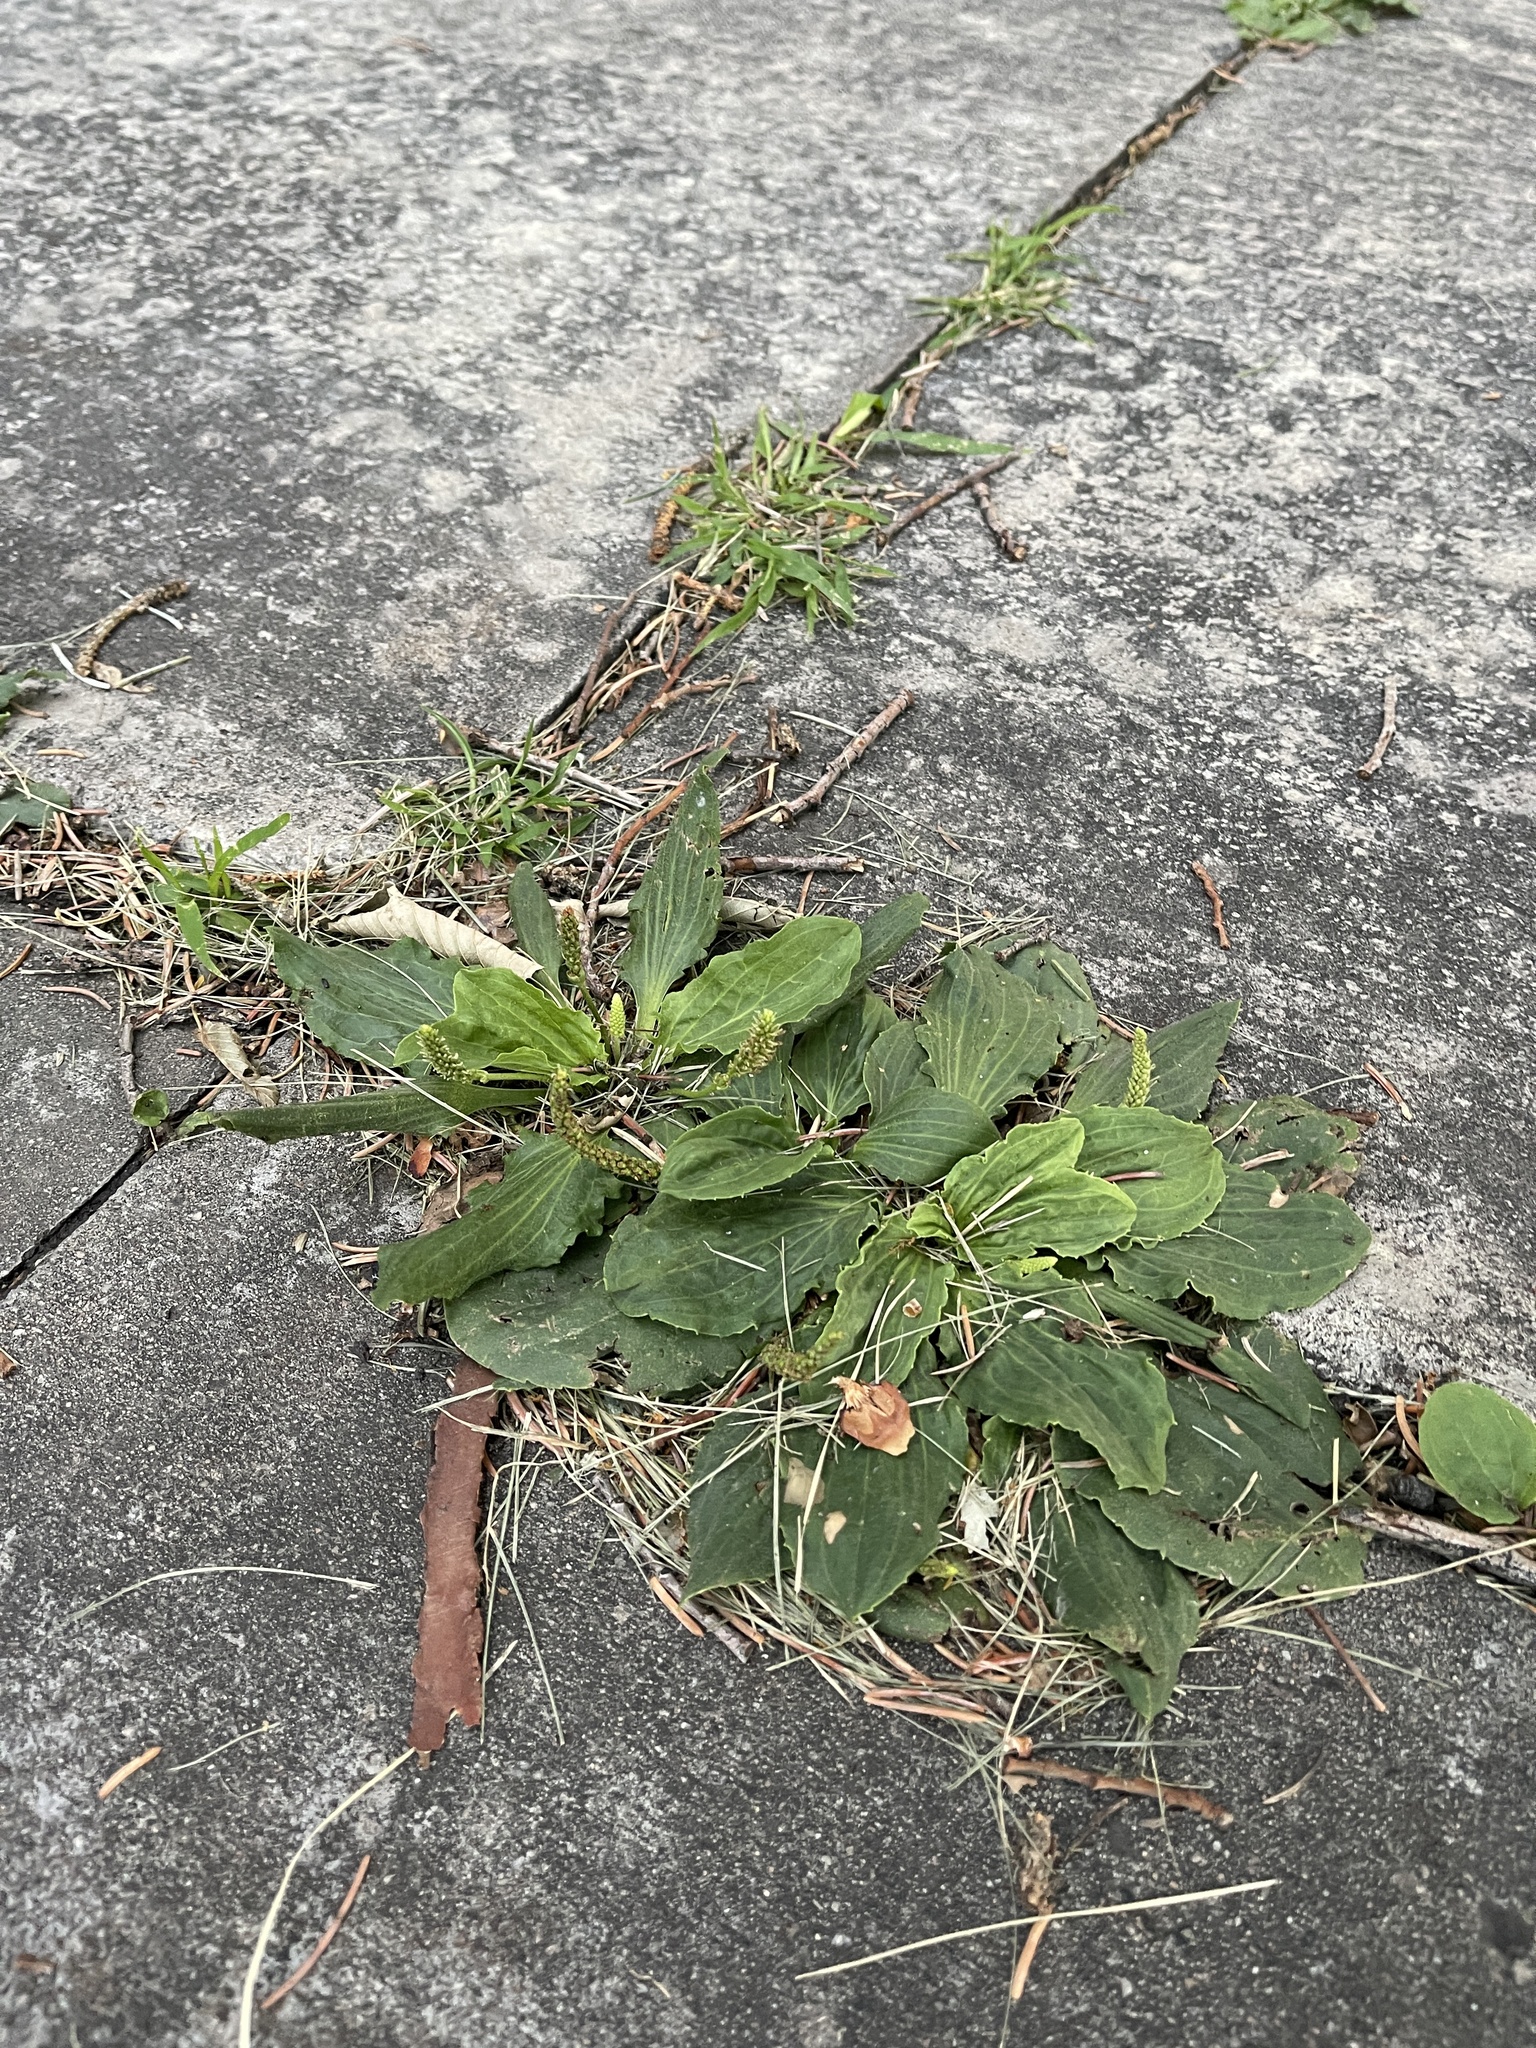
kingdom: Plantae
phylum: Tracheophyta
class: Magnoliopsida
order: Lamiales
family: Plantaginaceae
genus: Plantago
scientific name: Plantago major
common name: Common plantain
